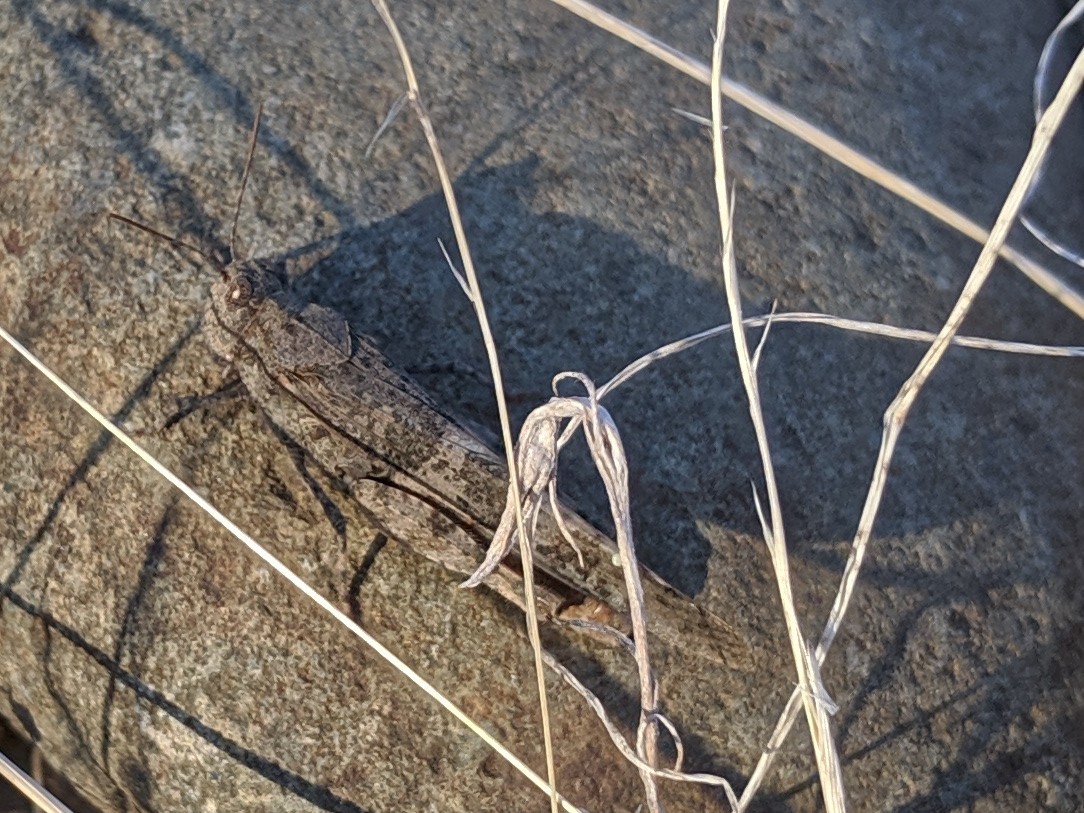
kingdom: Animalia
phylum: Arthropoda
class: Insecta
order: Orthoptera
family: Acrididae
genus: Trimerotropis
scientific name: Trimerotropis pallidipennis
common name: Pallid-winged grasshopper
